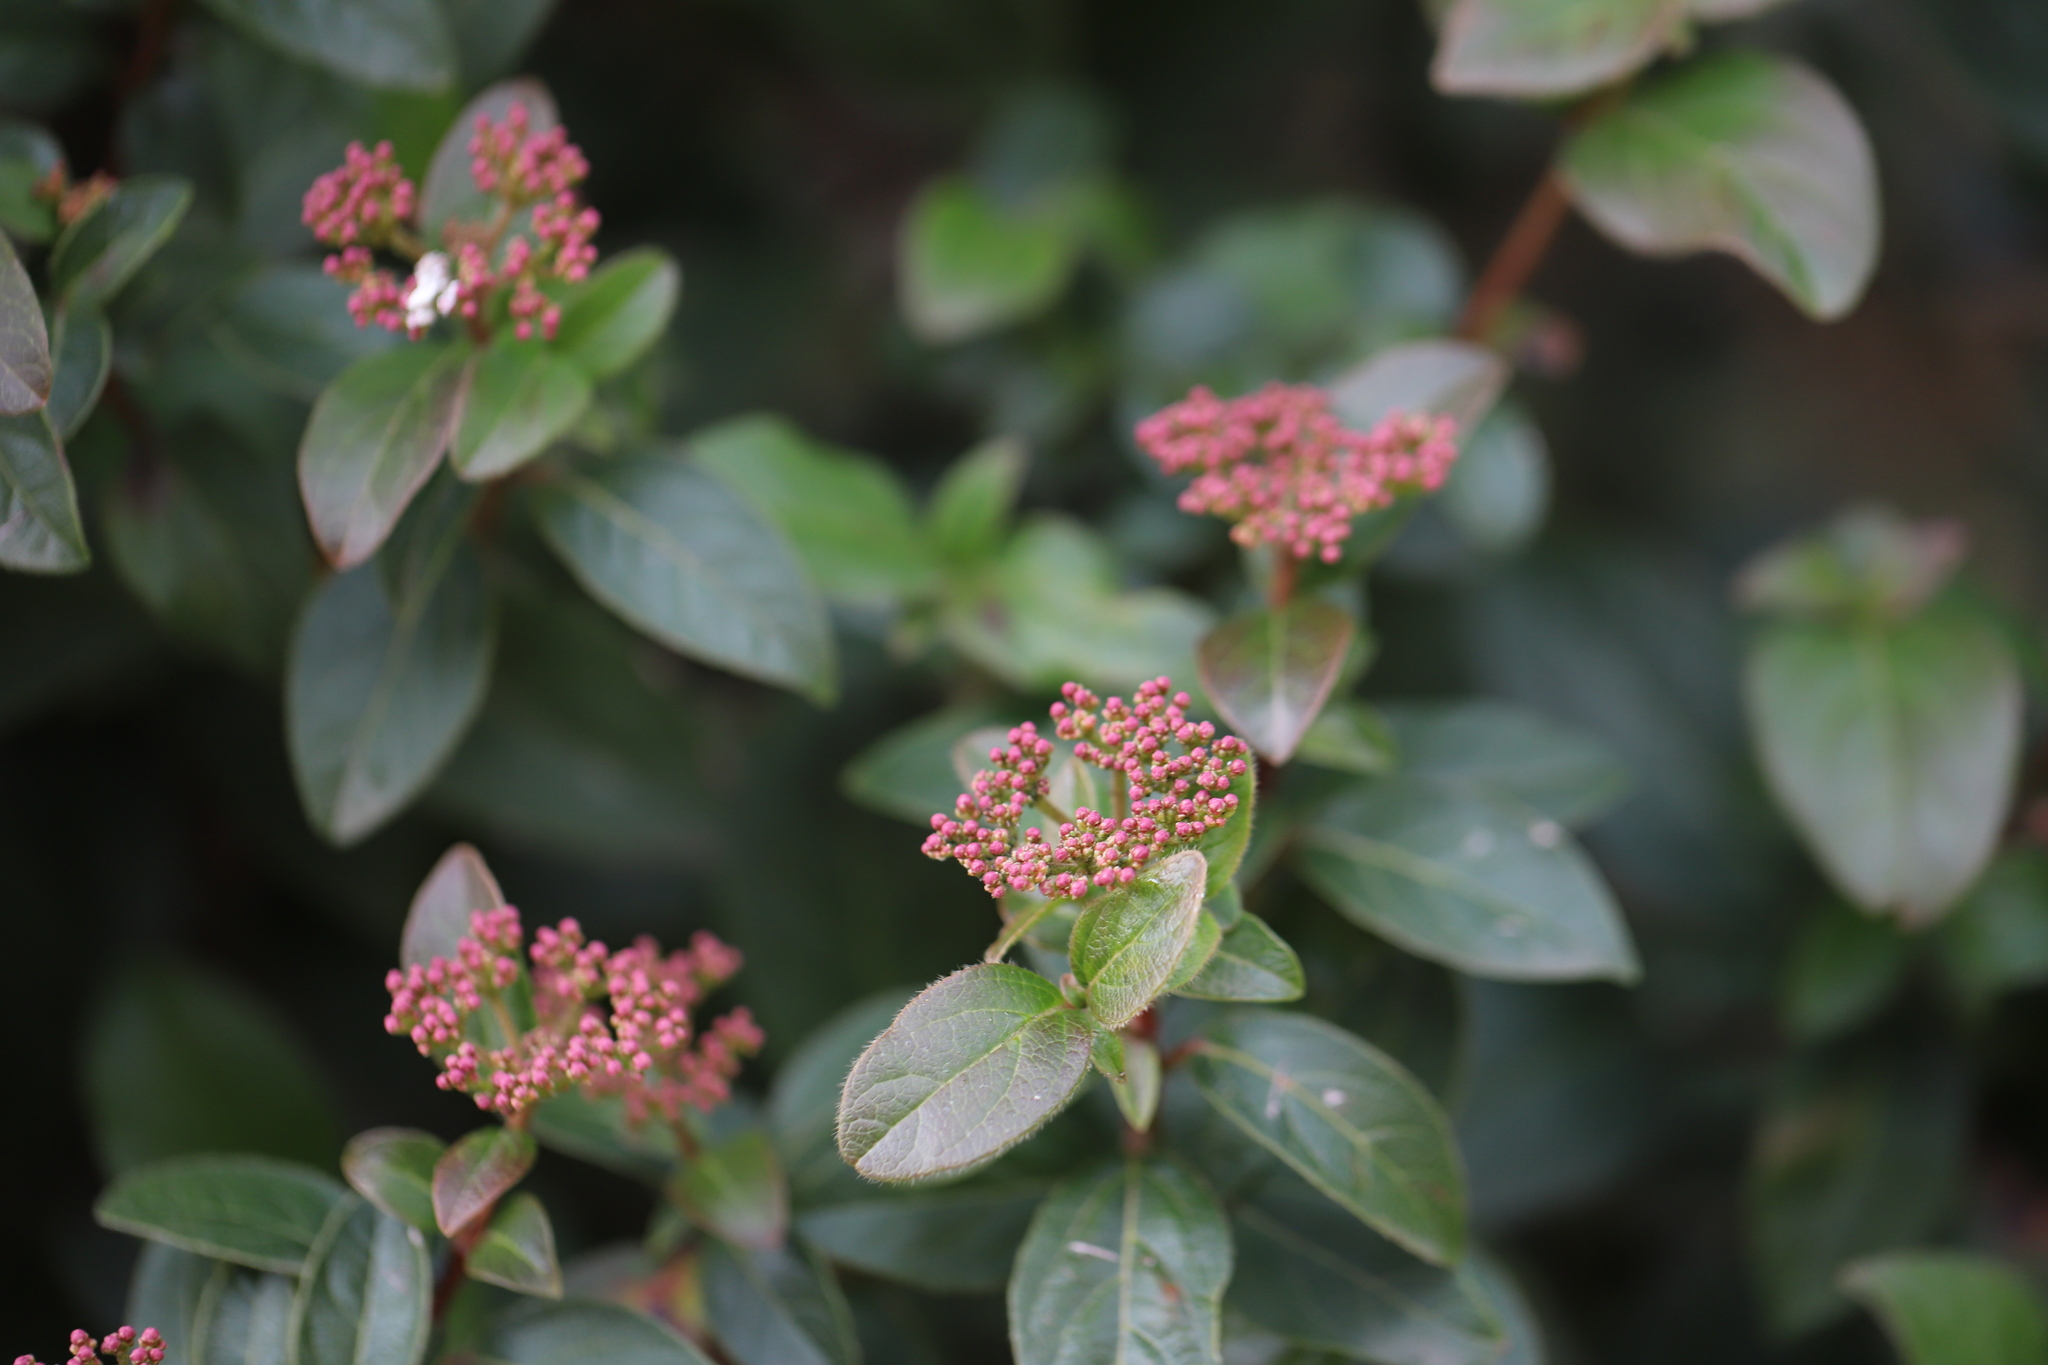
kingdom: Plantae
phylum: Tracheophyta
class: Magnoliopsida
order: Dipsacales
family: Viburnaceae
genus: Viburnum
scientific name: Viburnum tinus
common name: Laurustinus
